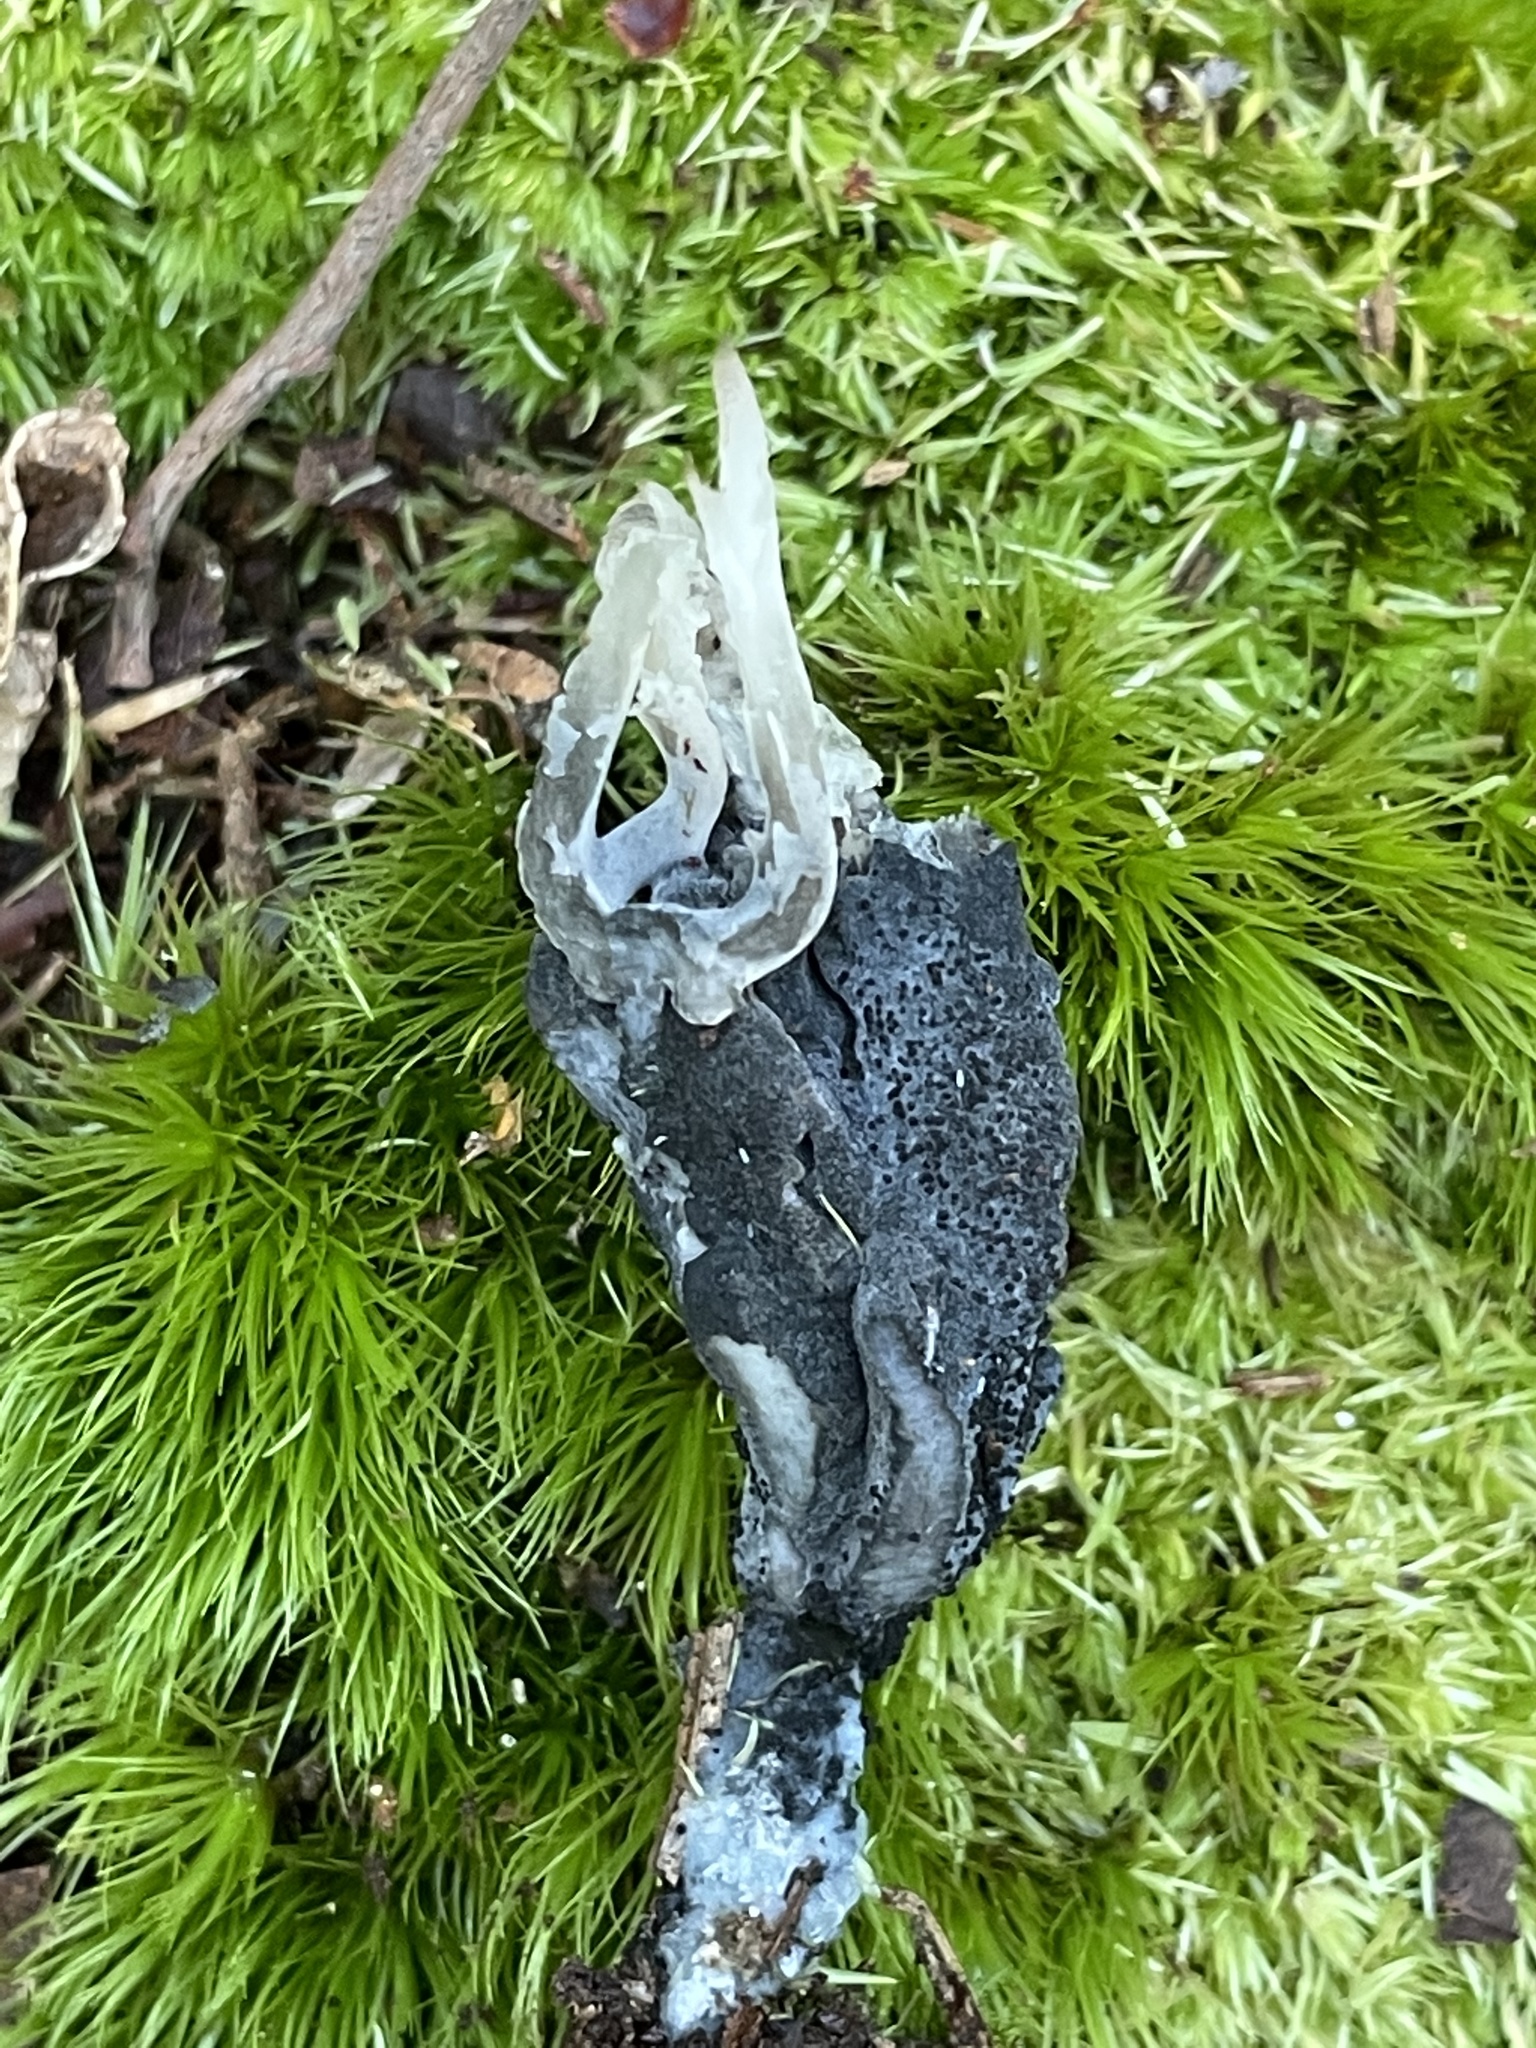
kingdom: Fungi
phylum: Ascomycota
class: Sordariomycetes
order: Sordariales
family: Helminthosphaeriaceae
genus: Helminthosphaeria
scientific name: Helminthosphaeria clavariarum
